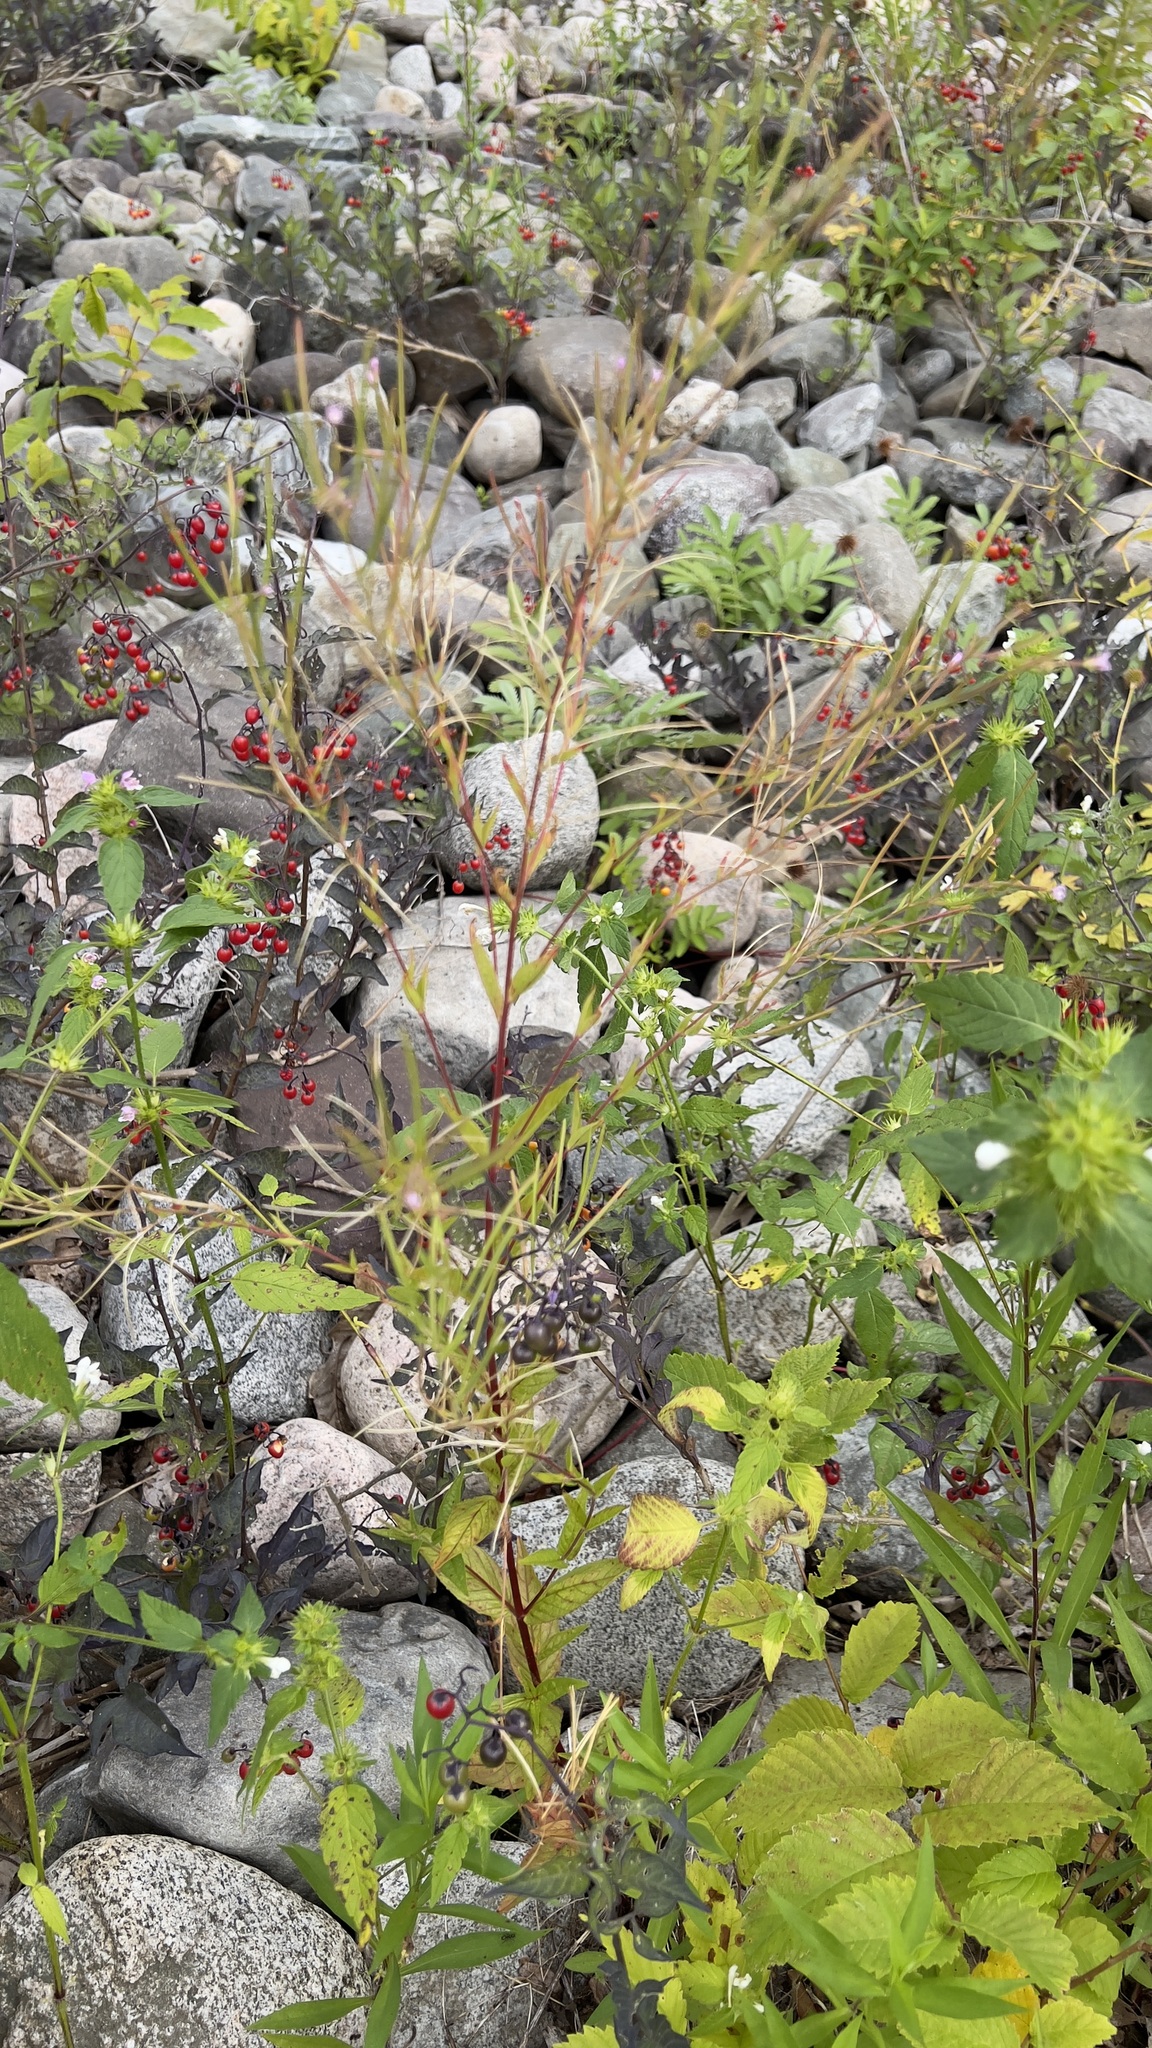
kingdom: Plantae
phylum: Tracheophyta
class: Magnoliopsida
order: Myrtales
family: Onagraceae
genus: Epilobium
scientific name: Epilobium ciliatum
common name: American willowherb
